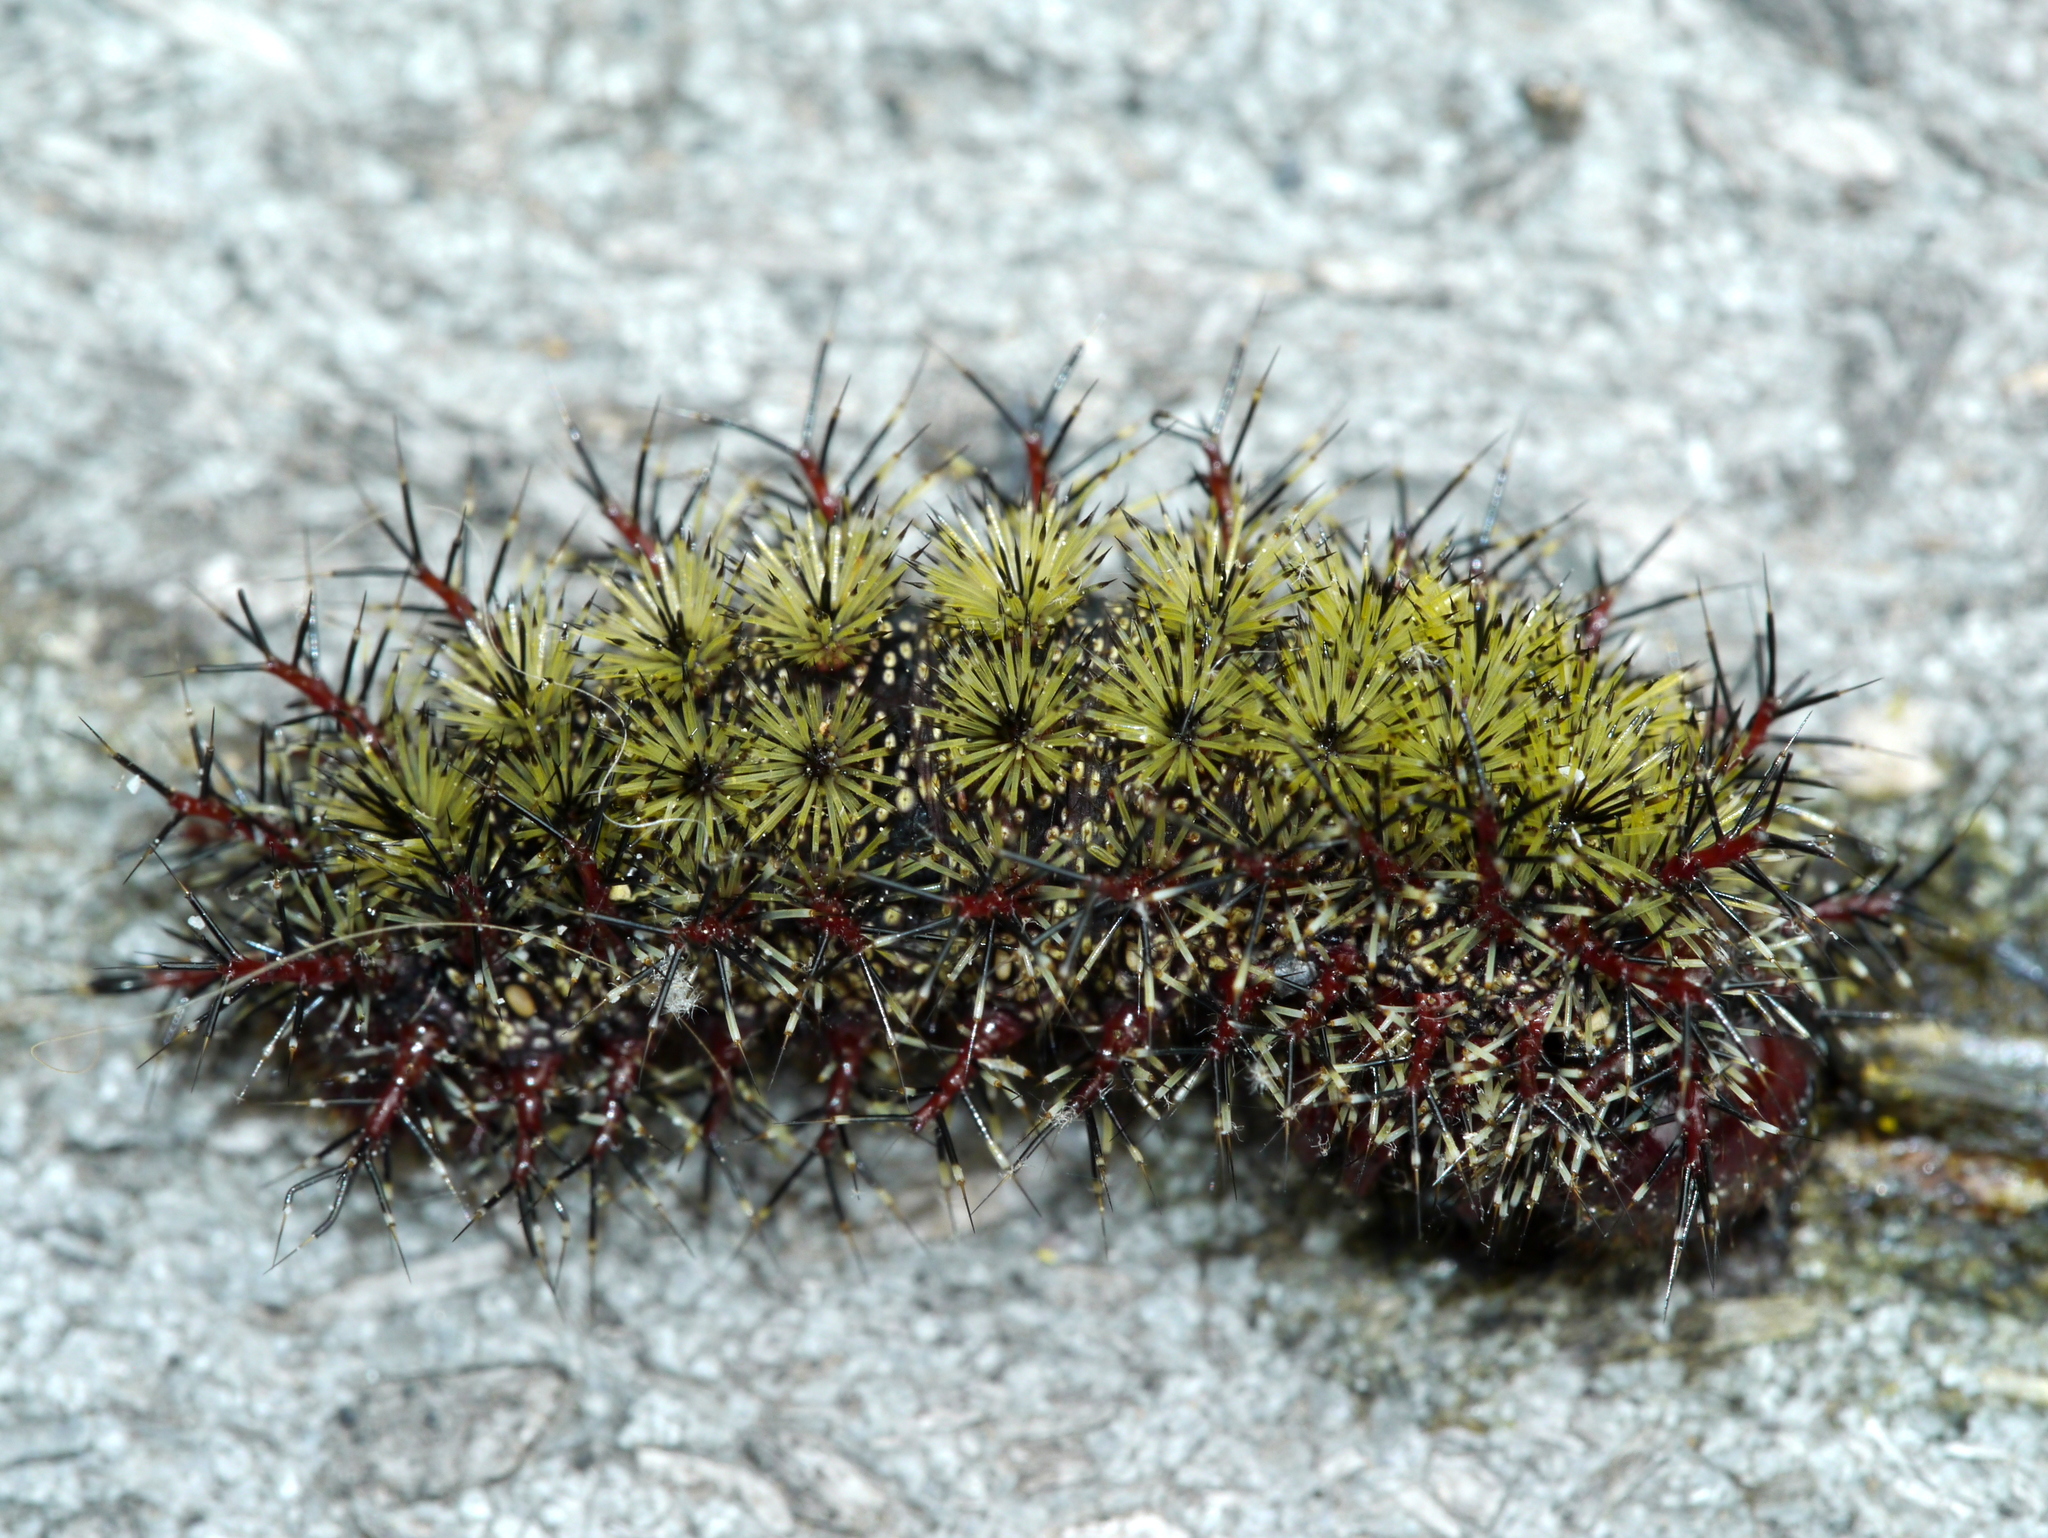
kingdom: Animalia
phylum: Arthropoda
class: Insecta
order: Lepidoptera
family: Saturniidae
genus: Hemileuca
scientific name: Hemileuca maia
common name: Eastern buckmoth
